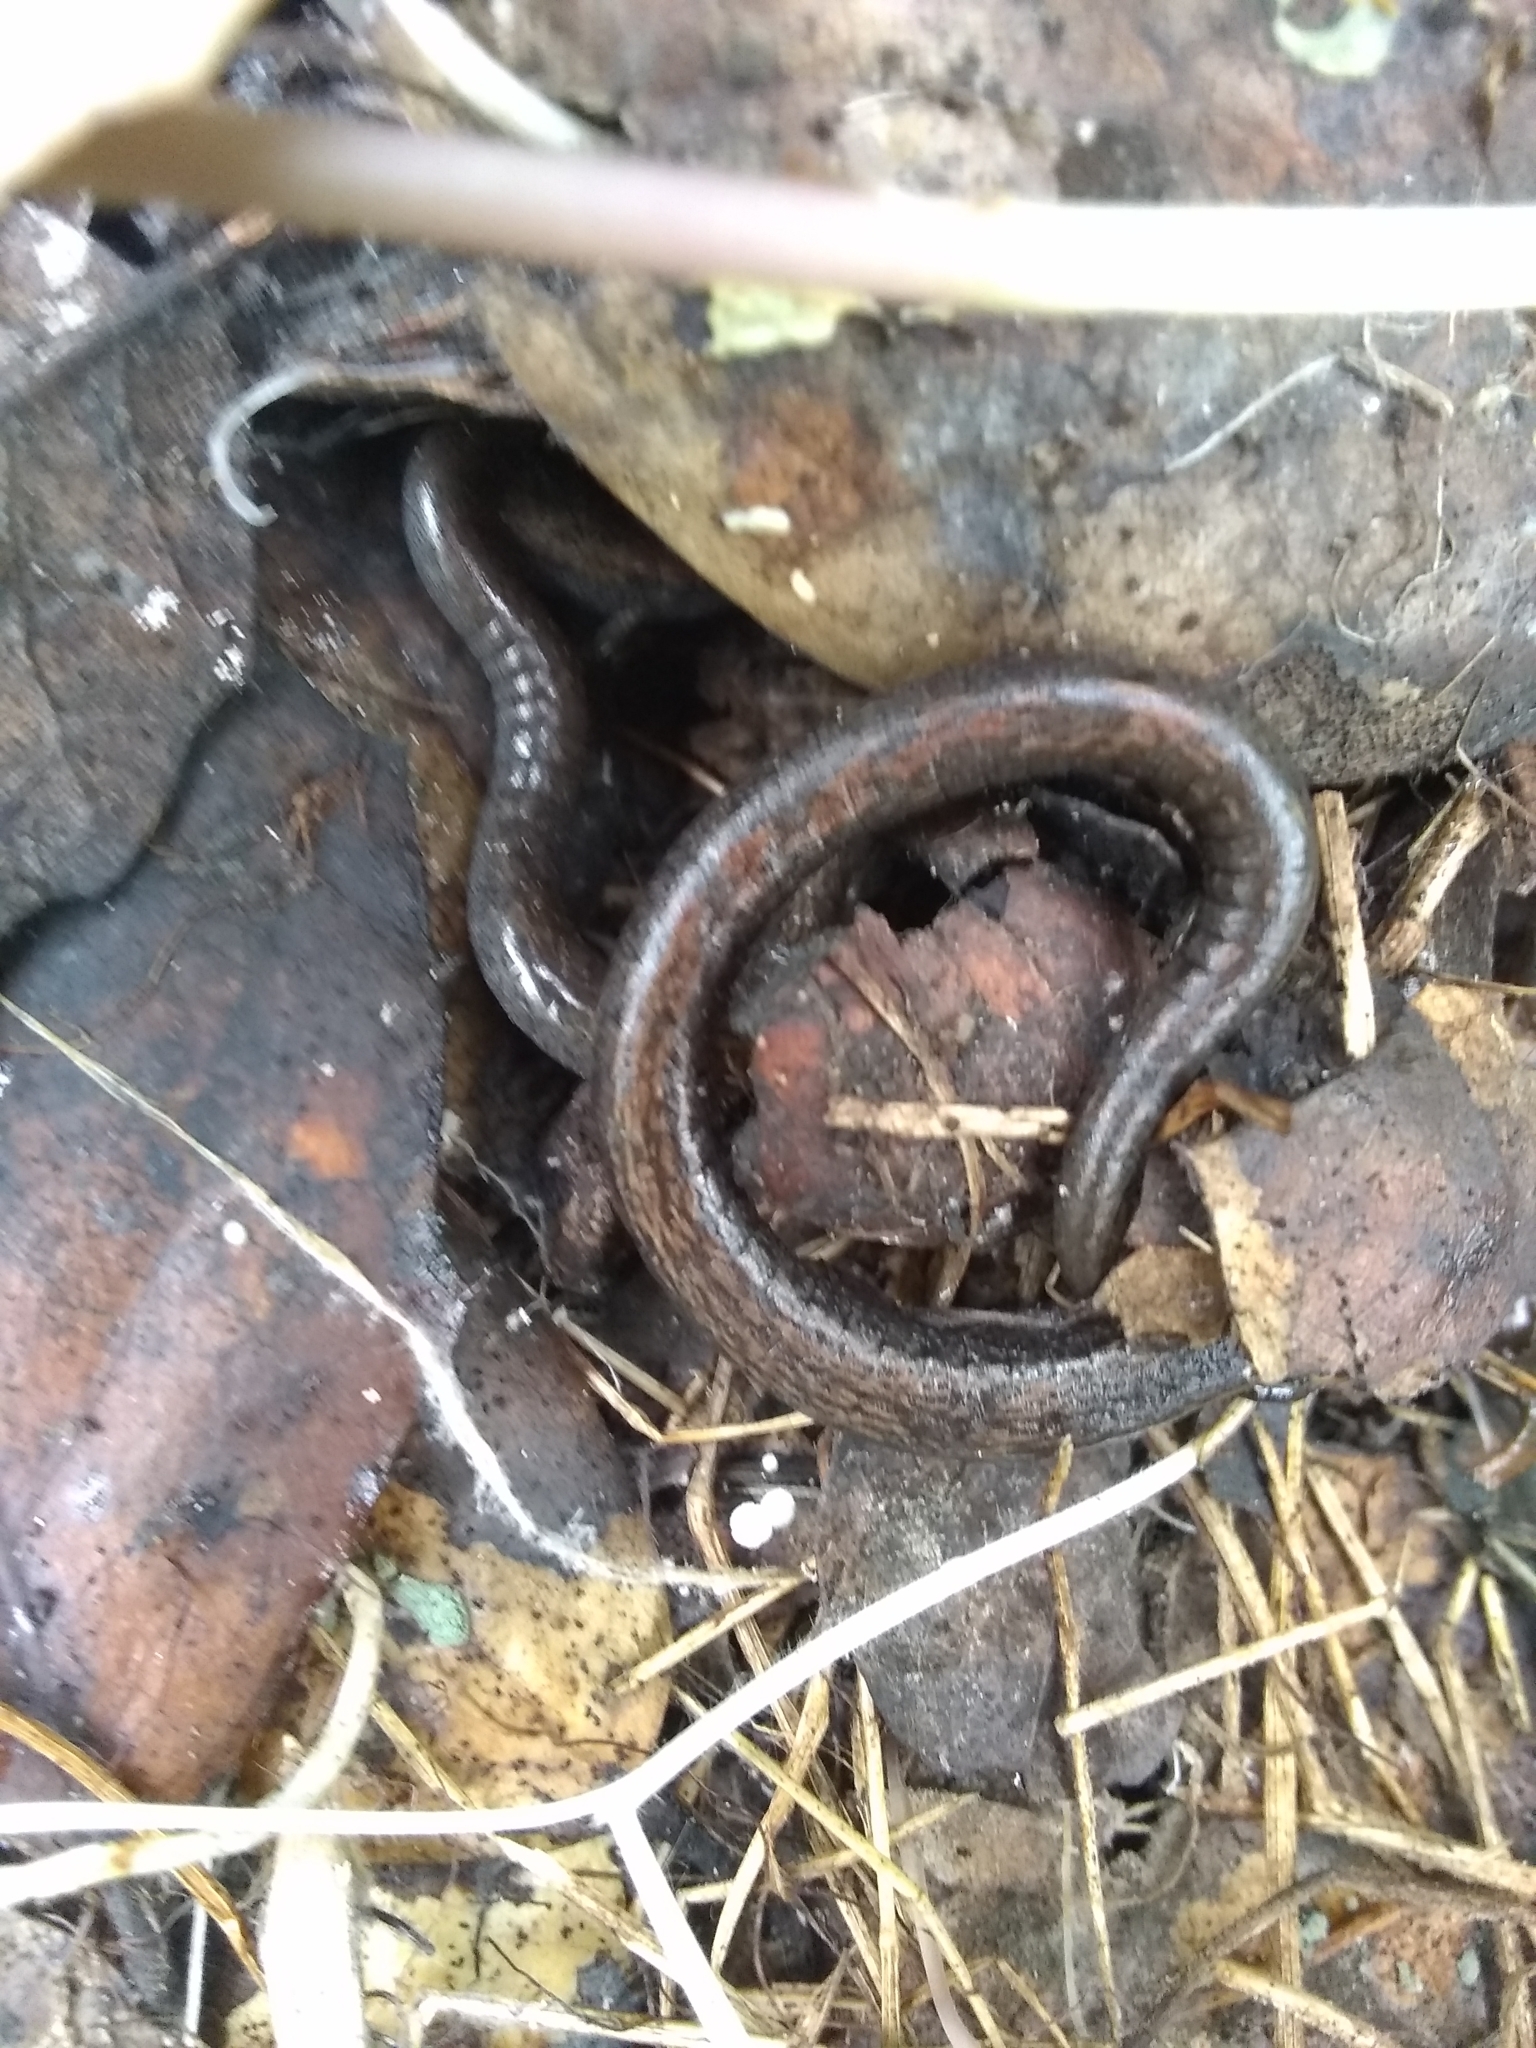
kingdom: Animalia
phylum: Chordata
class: Amphibia
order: Caudata
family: Plethodontidae
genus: Batrachoseps
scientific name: Batrachoseps attenuatus
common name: California slender salamander
